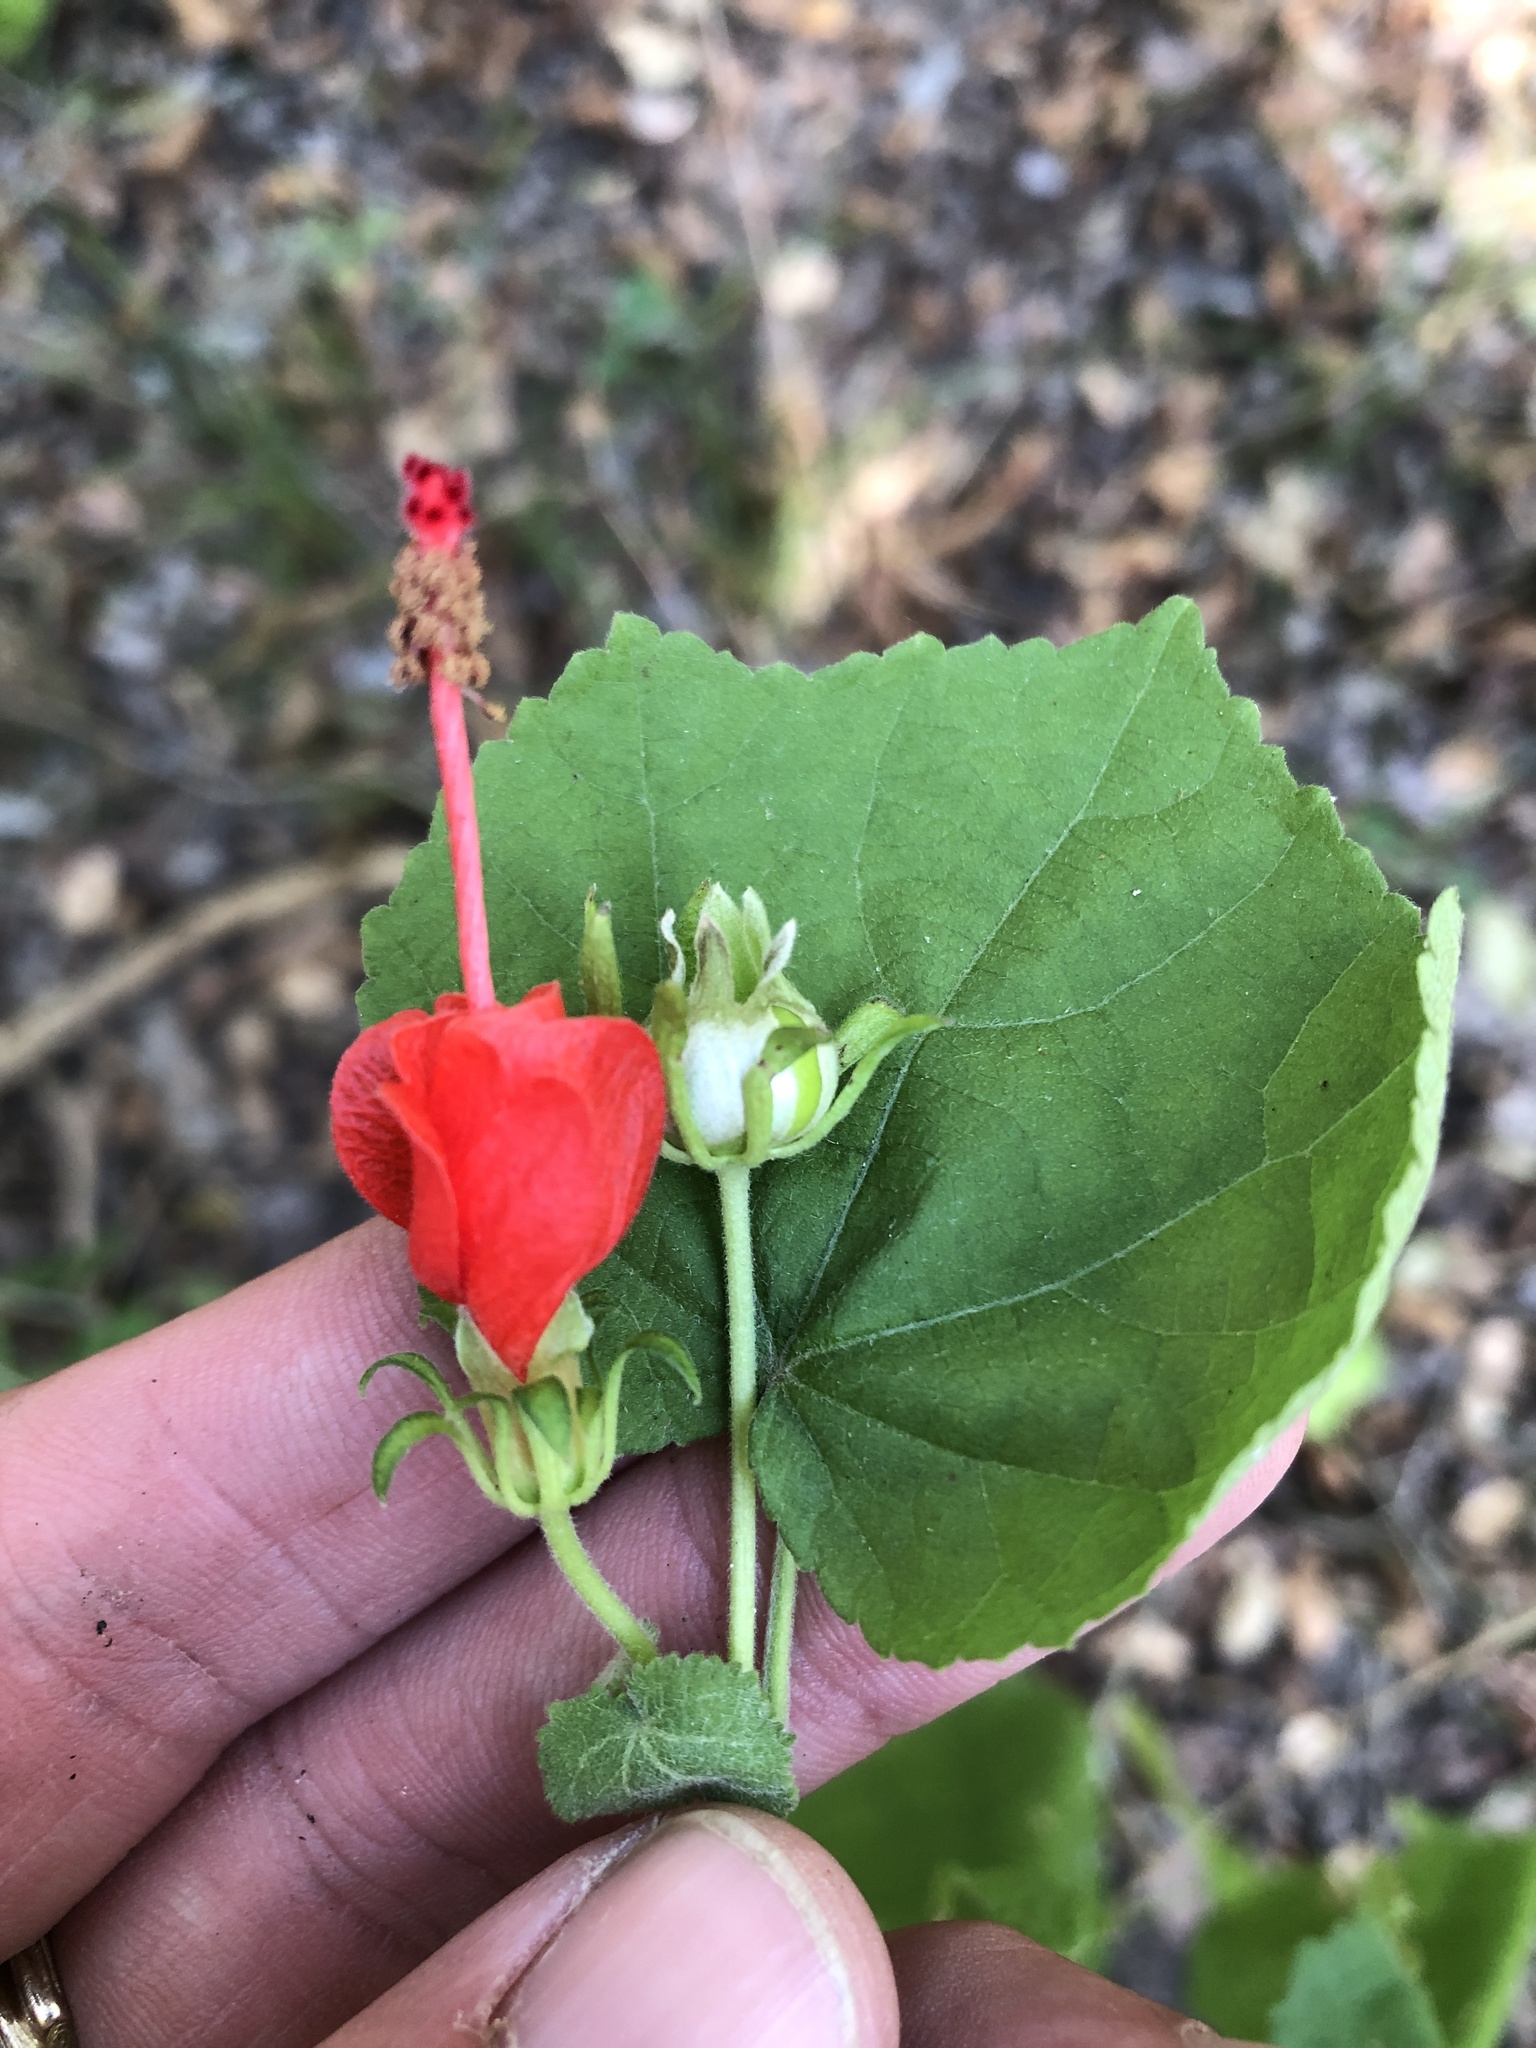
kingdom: Plantae
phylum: Tracheophyta
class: Magnoliopsida
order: Malvales
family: Malvaceae
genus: Malvaviscus
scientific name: Malvaviscus arboreus
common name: Wax mallow
